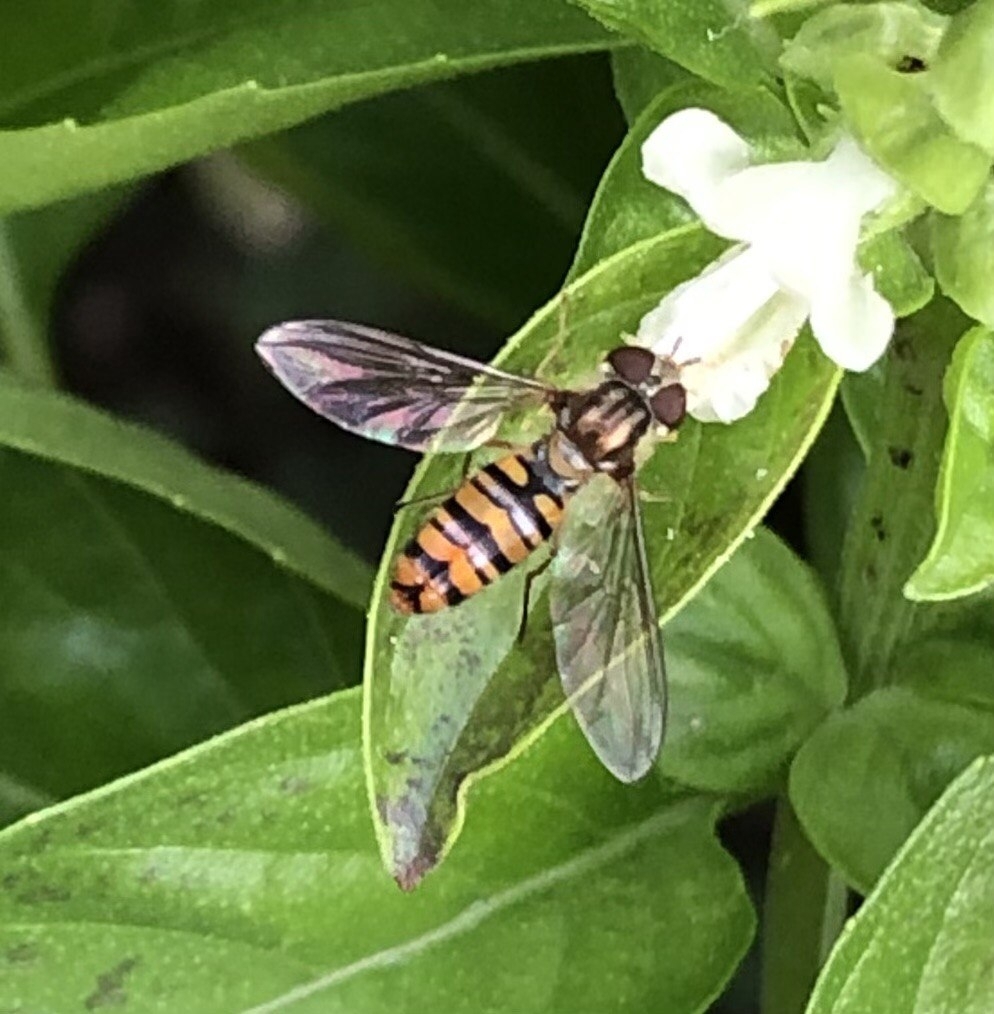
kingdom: Animalia
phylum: Arthropoda
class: Insecta
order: Diptera
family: Syrphidae
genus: Episyrphus
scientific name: Episyrphus balteatus
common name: Marmalade hoverfly
